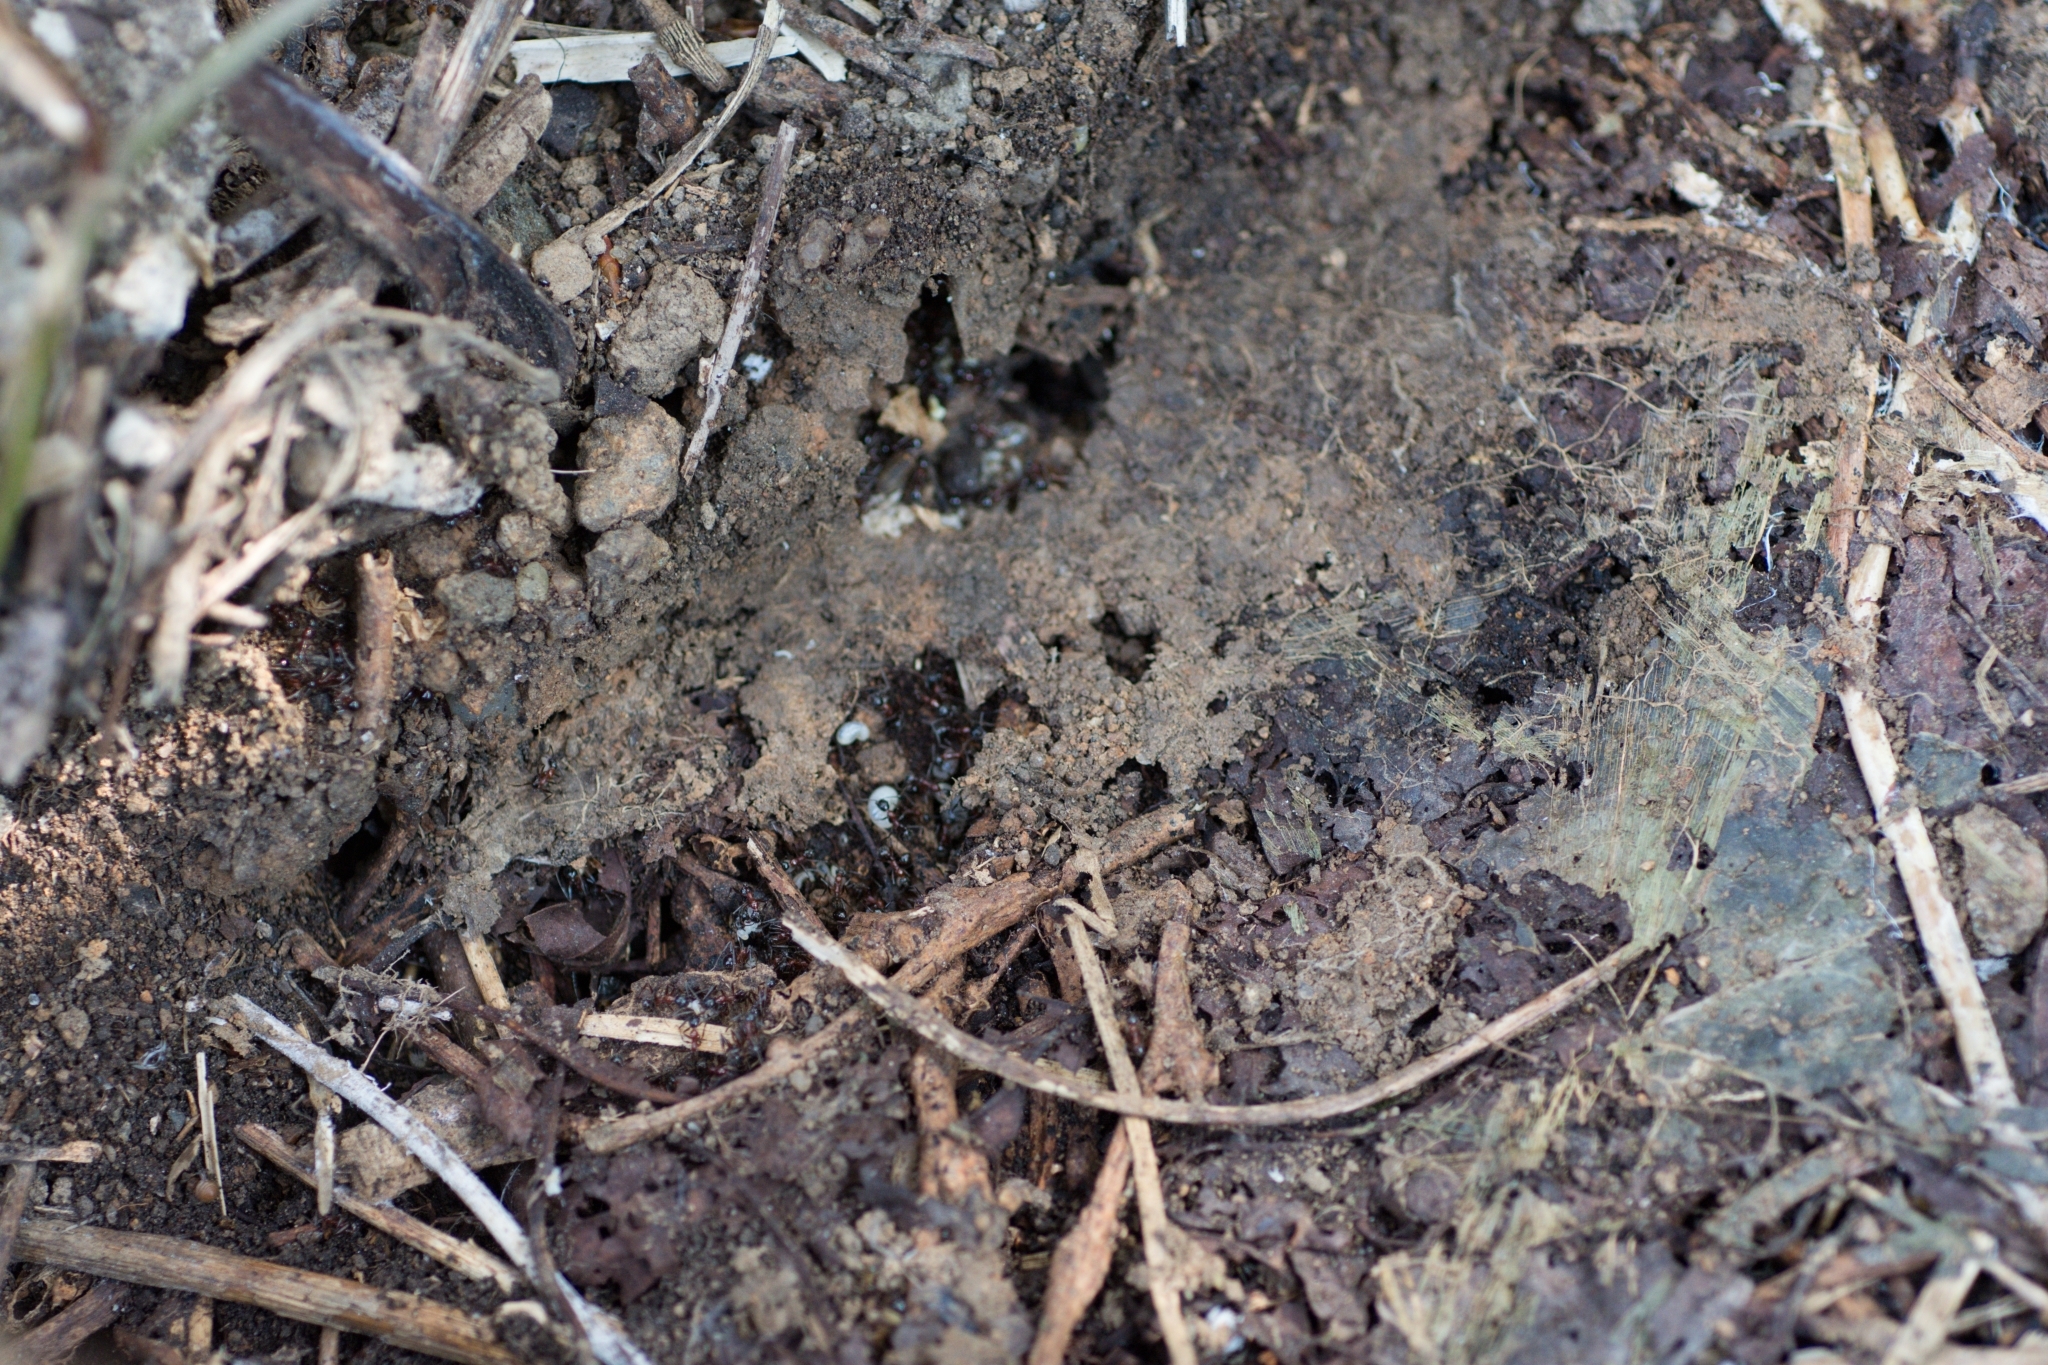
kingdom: Animalia
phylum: Arthropoda
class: Insecta
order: Hymenoptera
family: Formicidae
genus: Aphaenogaster
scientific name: Aphaenogaster lepida
